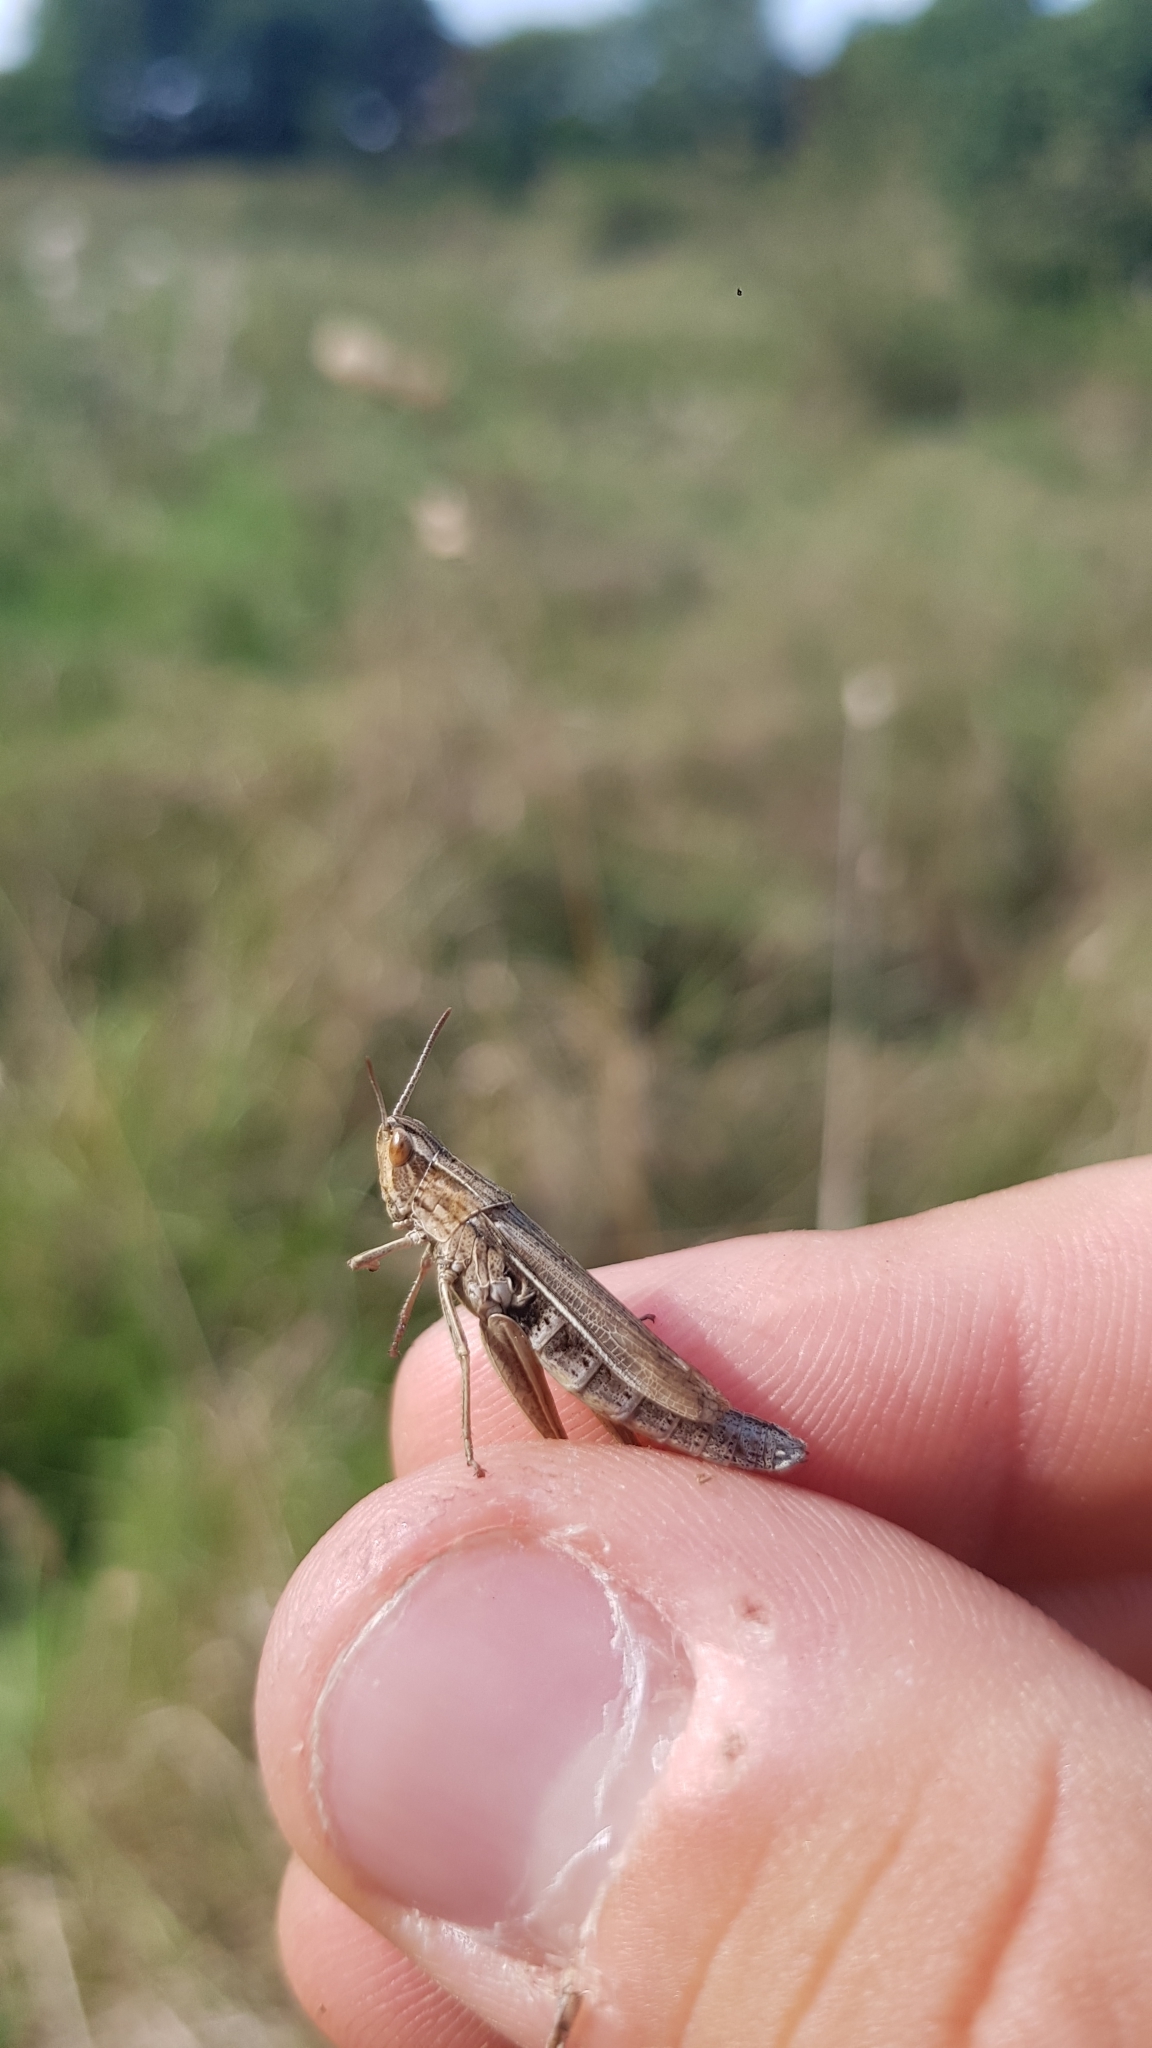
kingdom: Animalia
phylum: Arthropoda
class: Insecta
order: Orthoptera
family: Acrididae
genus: Chorthippus
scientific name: Chorthippus albomarginatus
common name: Lesser marsh grasshopper
